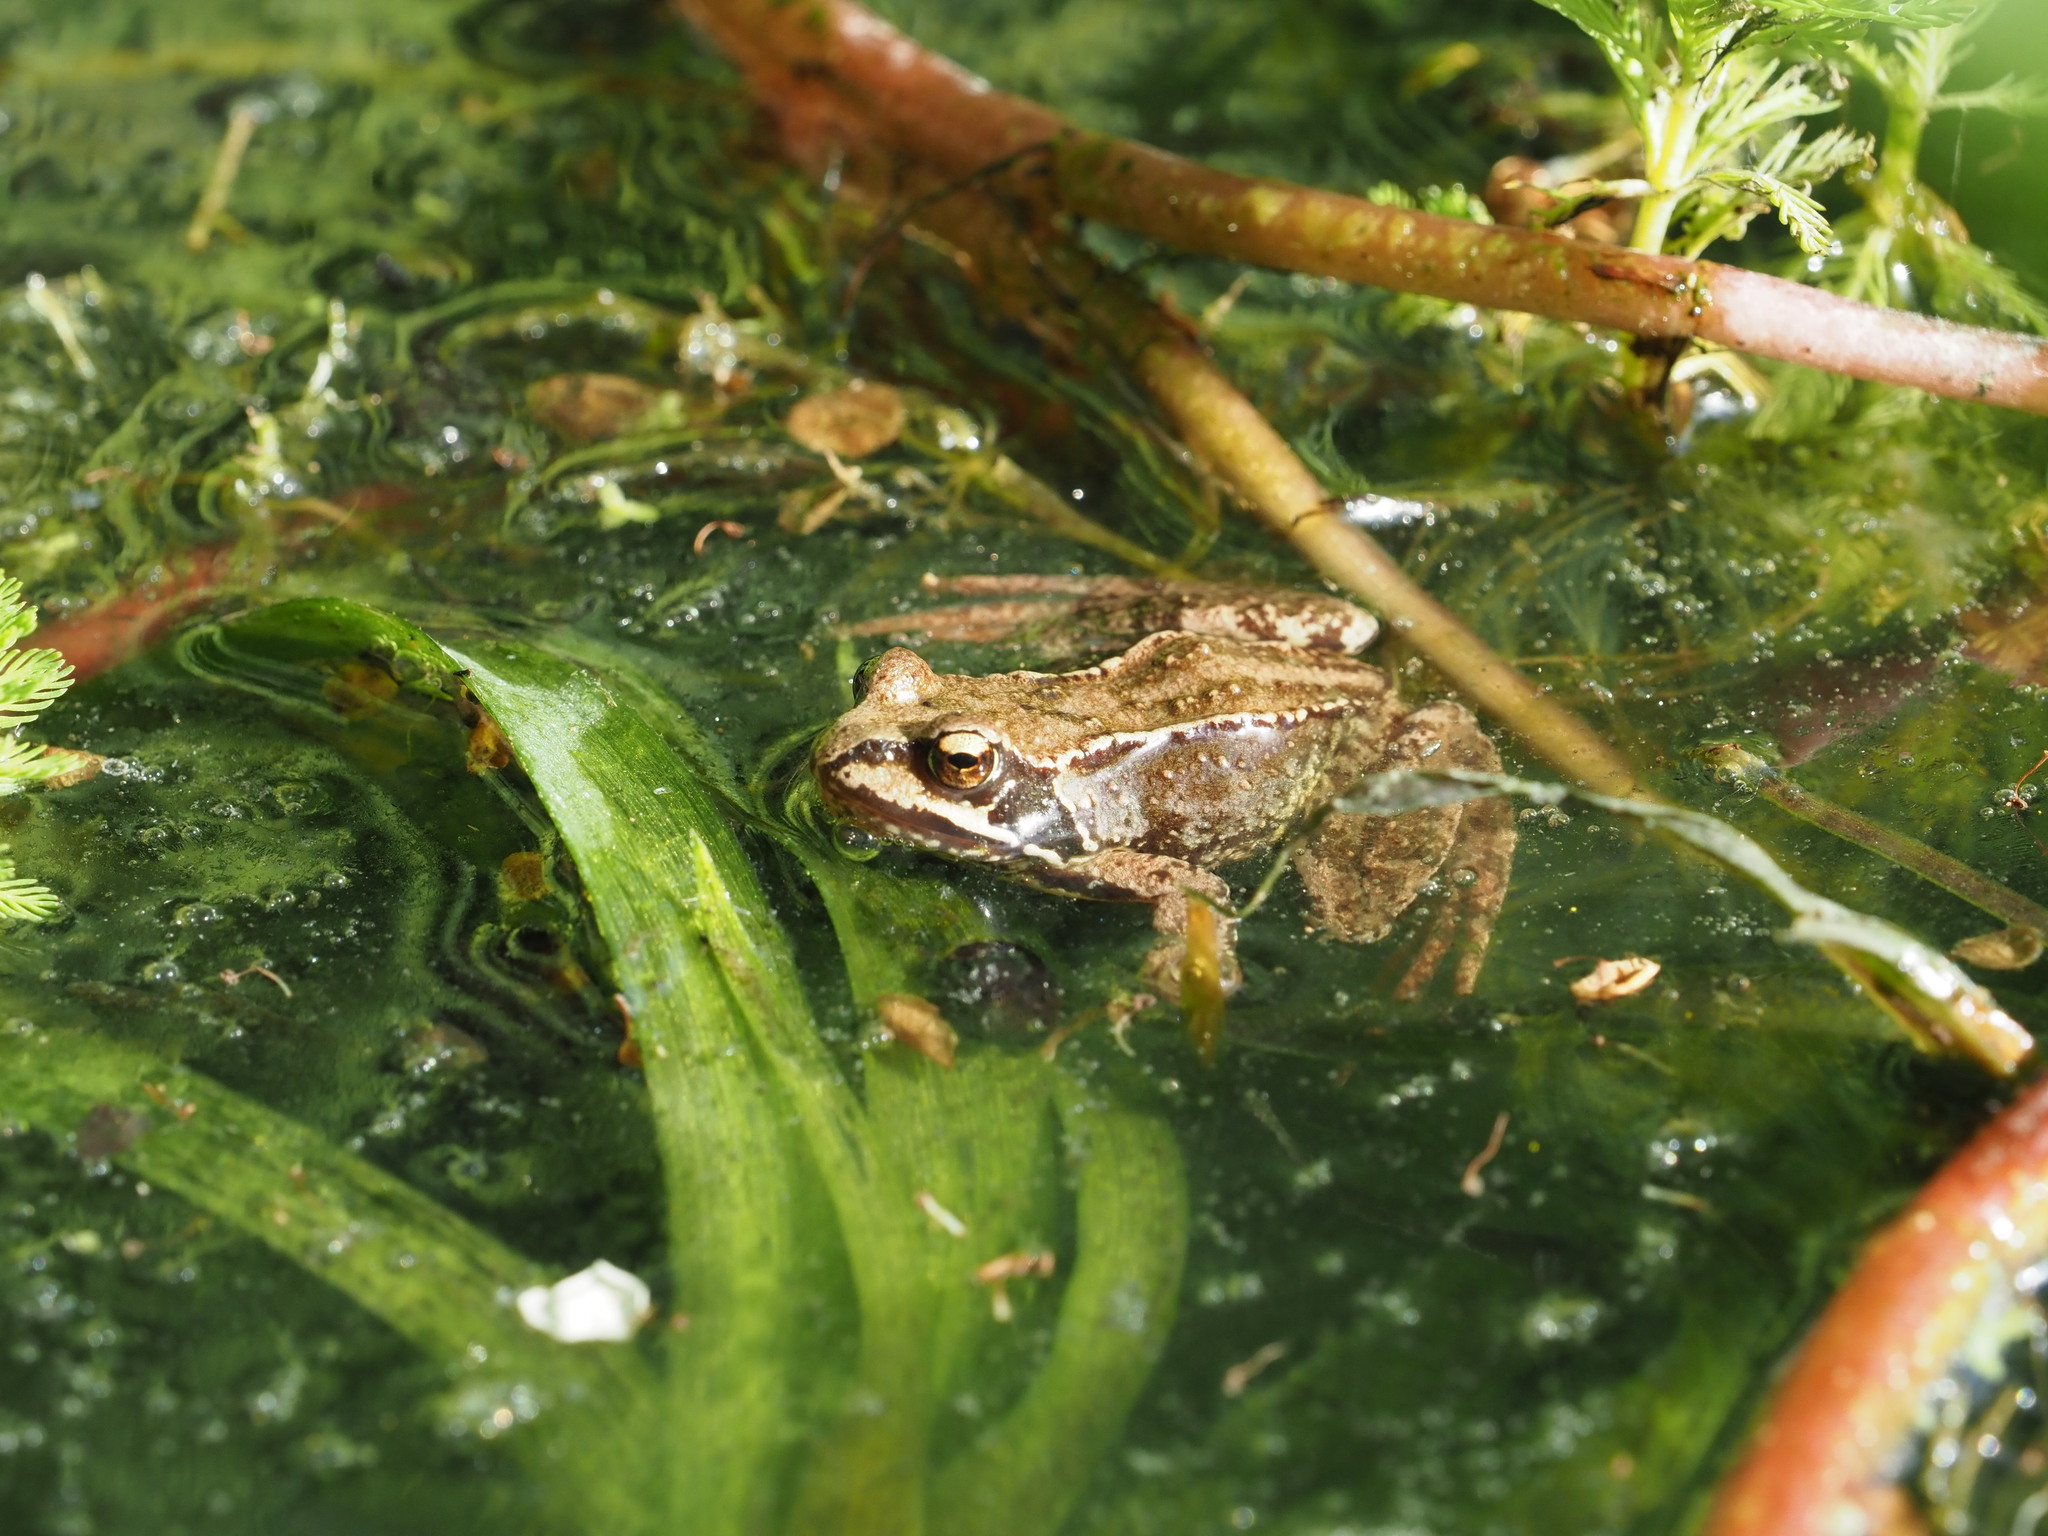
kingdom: Animalia
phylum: Chordata
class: Amphibia
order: Anura
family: Ranidae
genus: Rana
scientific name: Rana temporaria
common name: Common frog
